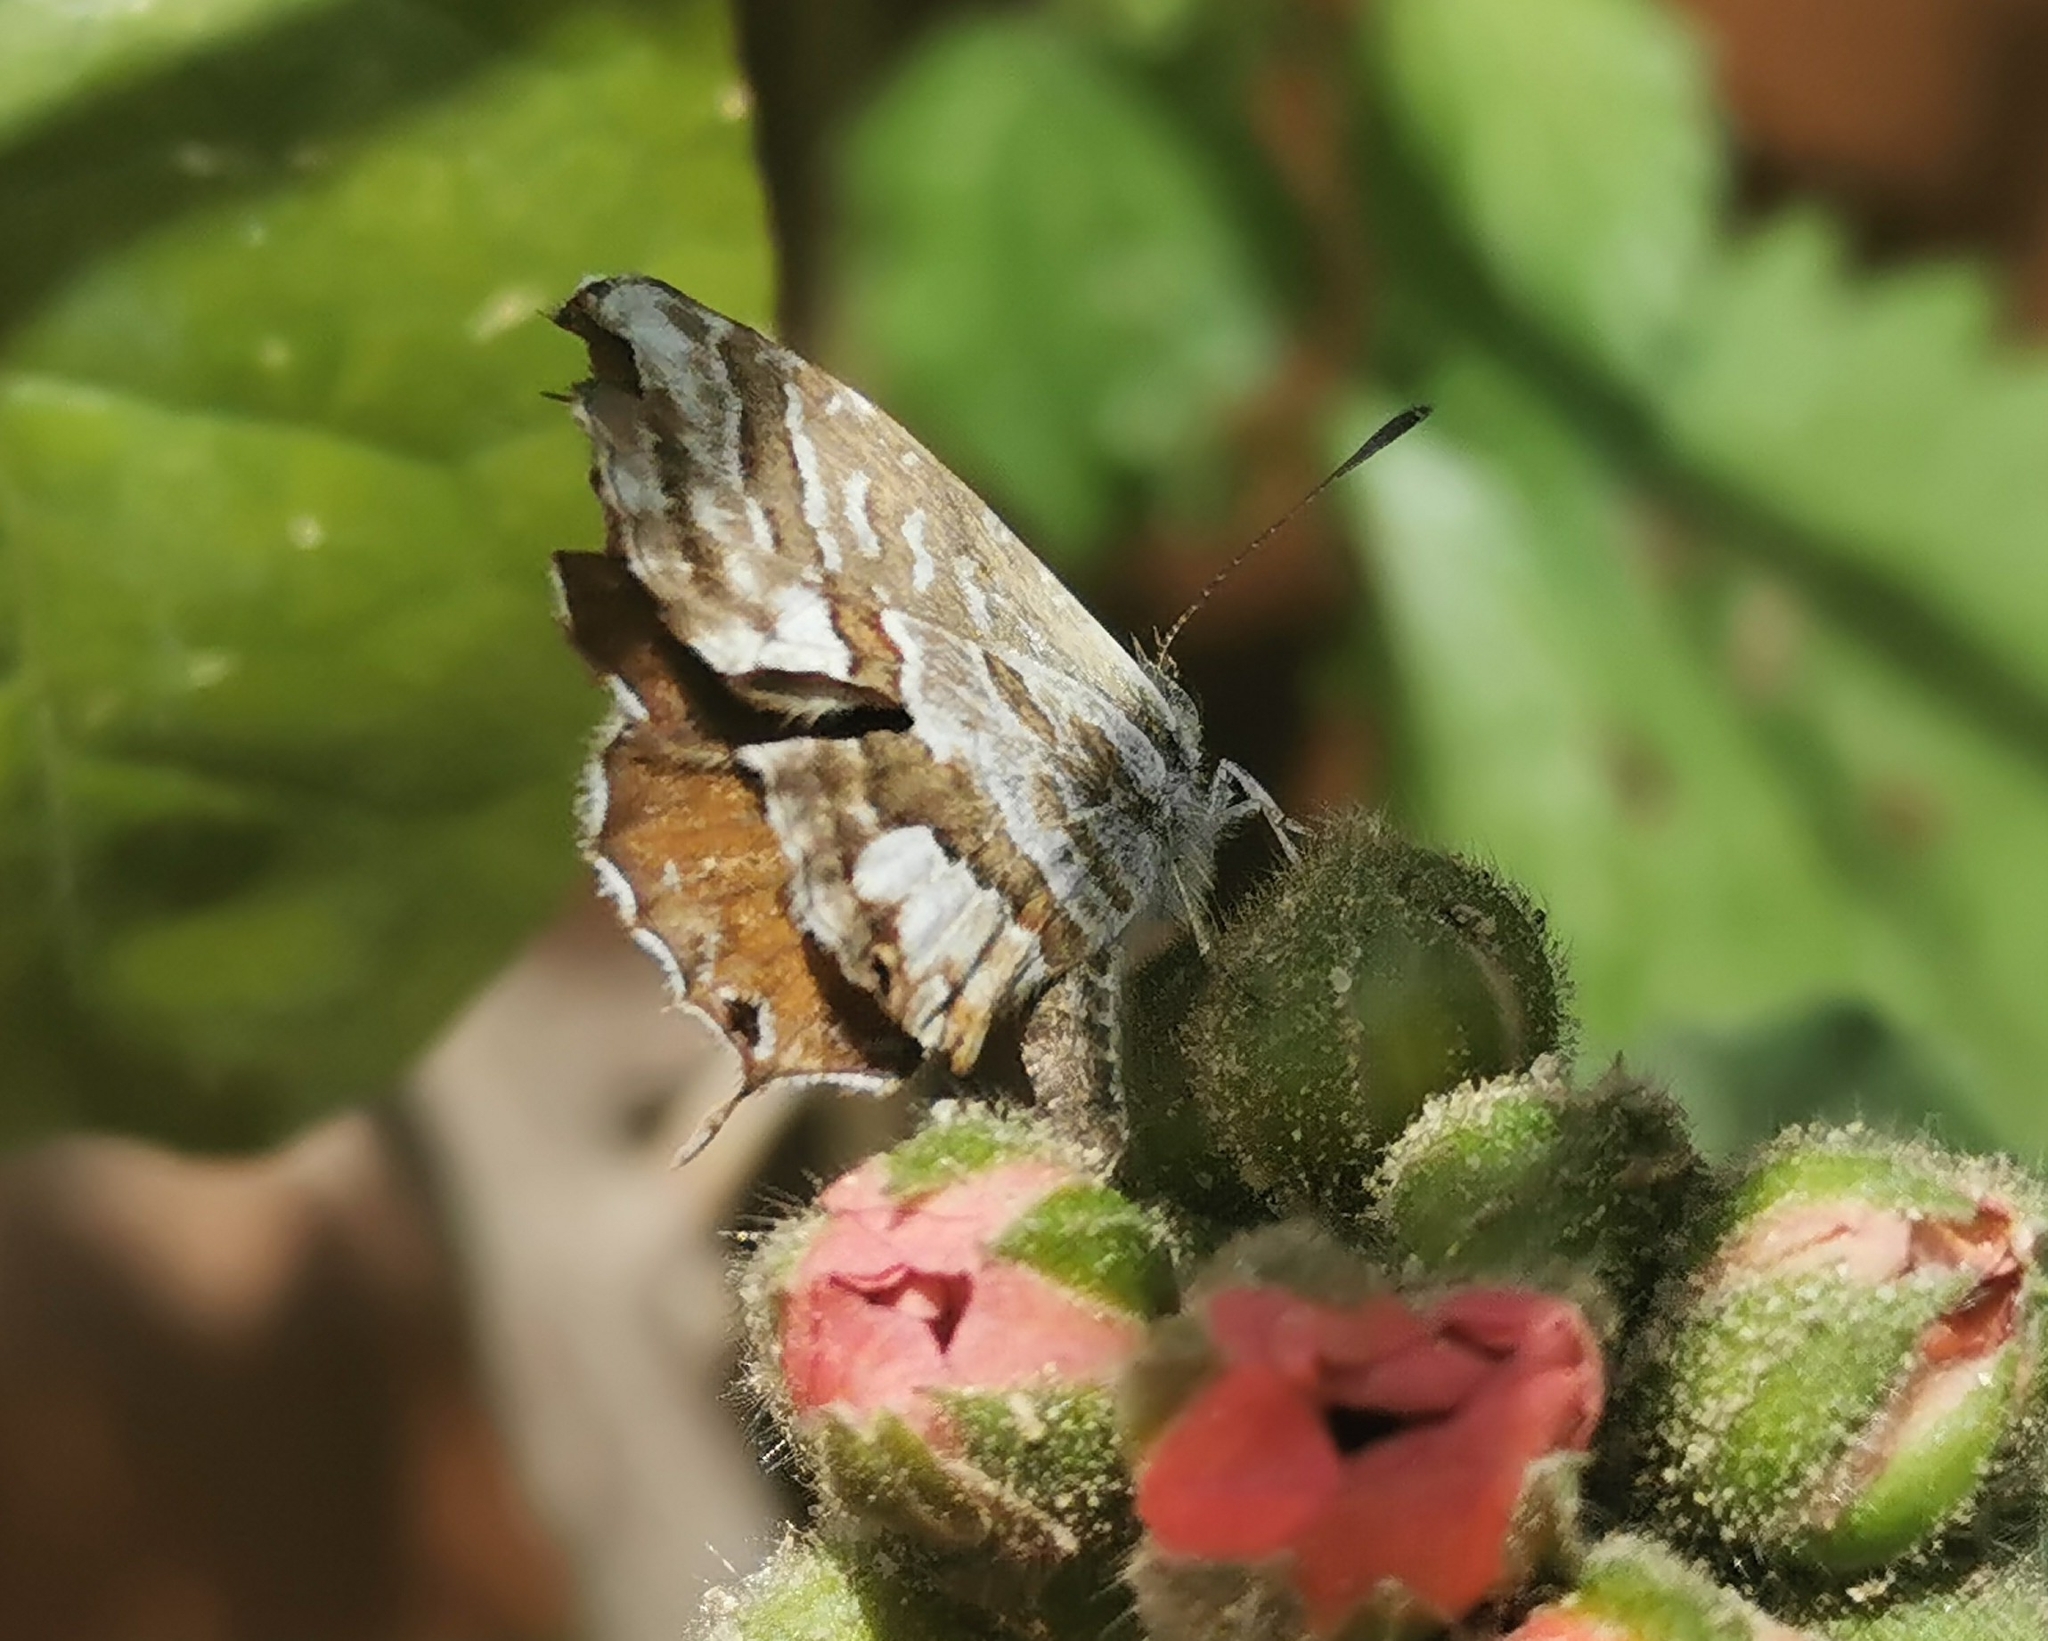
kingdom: Animalia
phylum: Arthropoda
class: Insecta
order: Lepidoptera
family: Lycaenidae
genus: Cacyreus
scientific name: Cacyreus marshalli
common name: Geranium bronze
